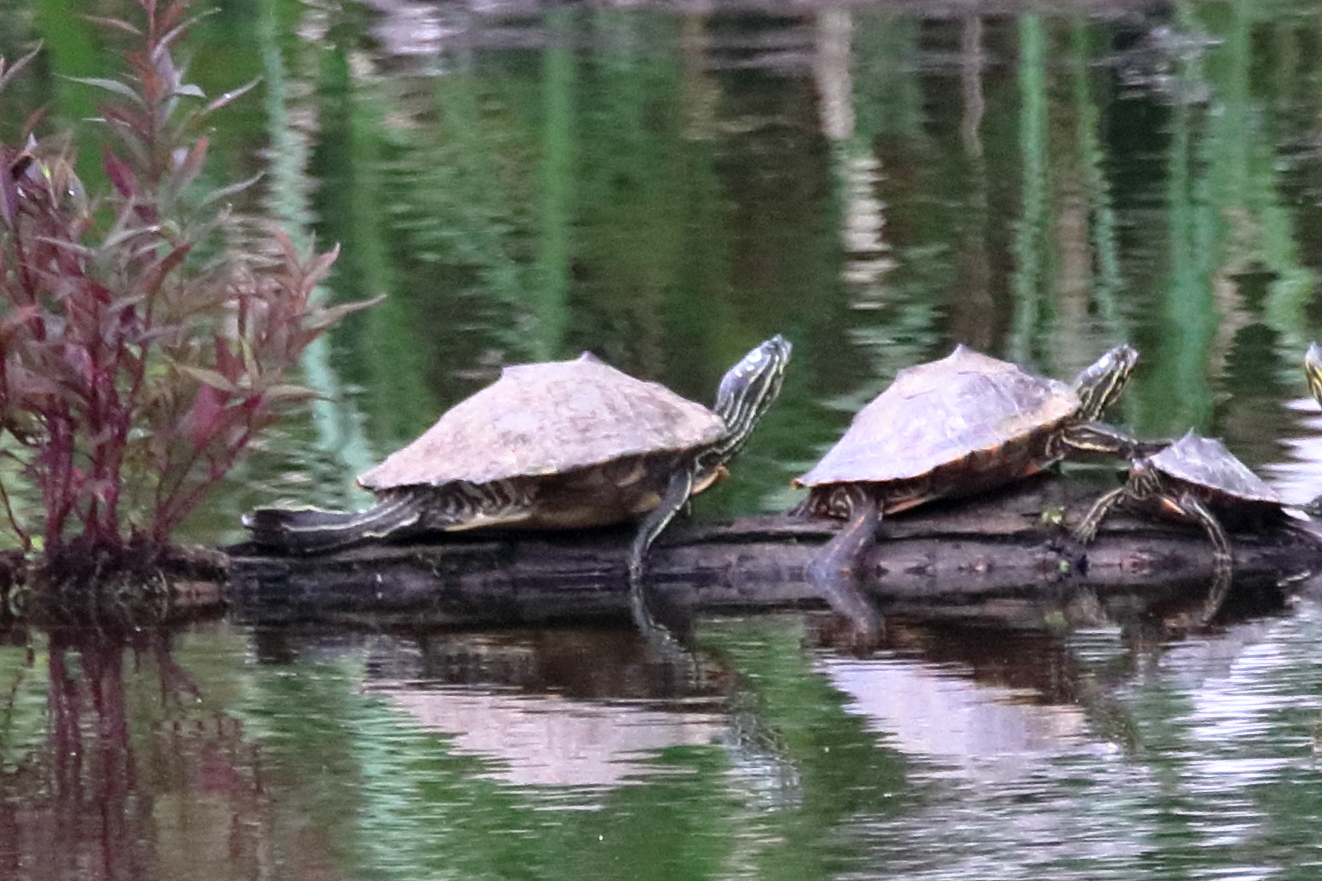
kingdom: Animalia
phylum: Chordata
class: Testudines
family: Emydidae
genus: Graptemys
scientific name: Graptemys oculifera
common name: Ringed map turtle
